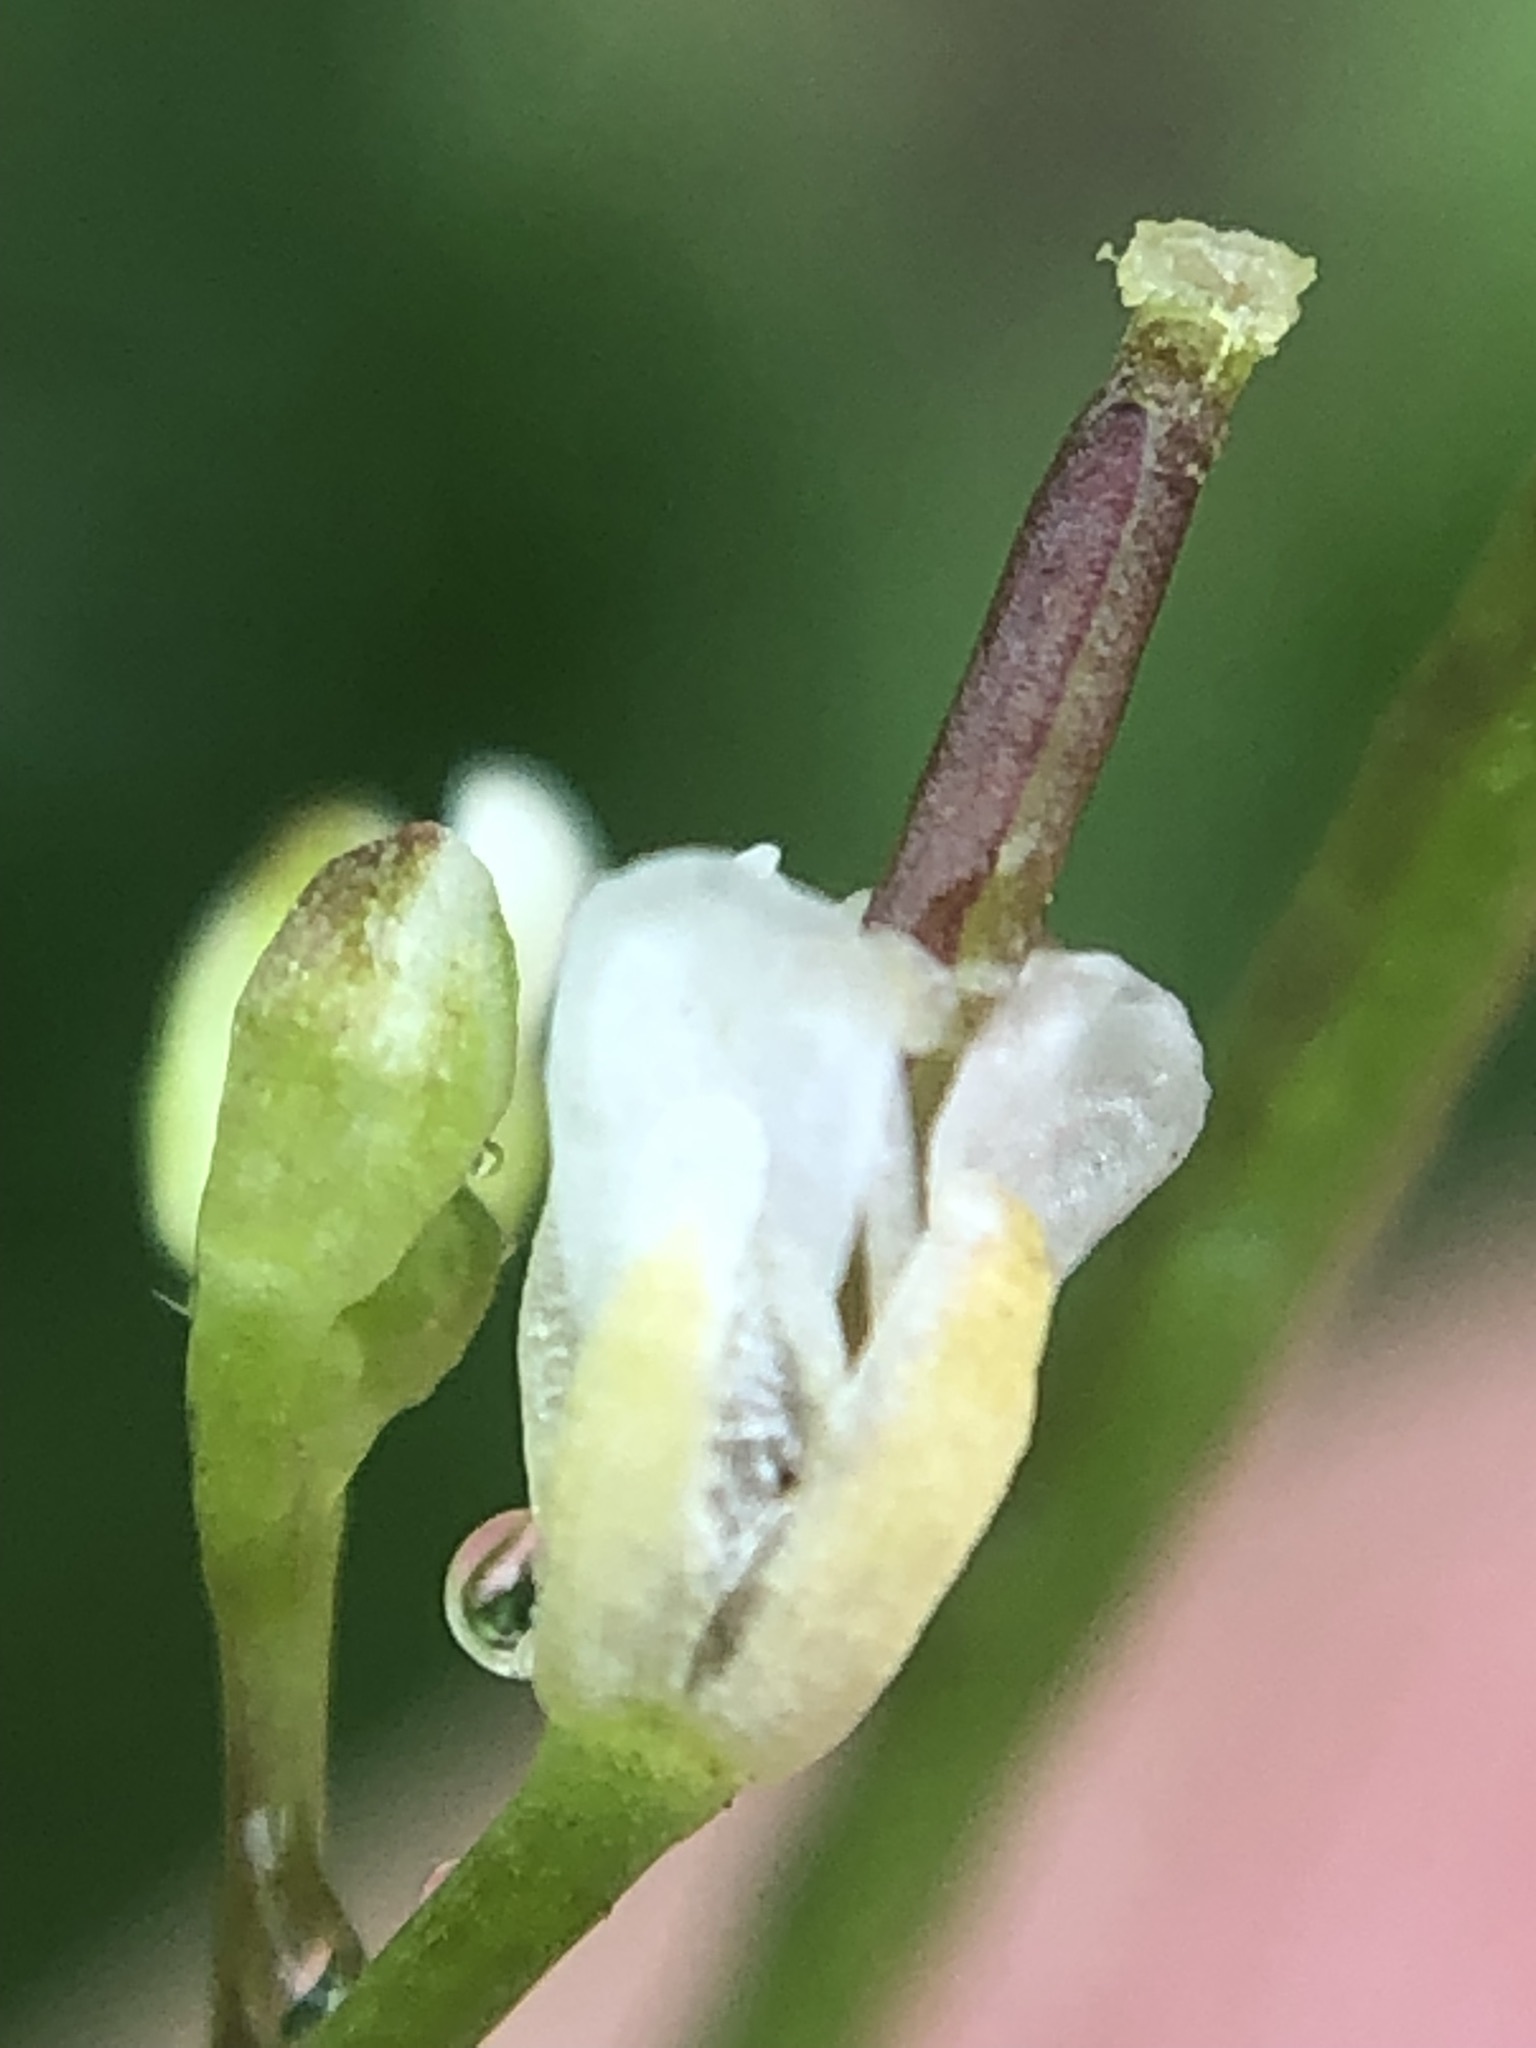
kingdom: Plantae
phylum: Tracheophyta
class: Magnoliopsida
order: Brassicales
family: Brassicaceae
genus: Cardamine
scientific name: Cardamine occulta
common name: Asian wavy bittercress
